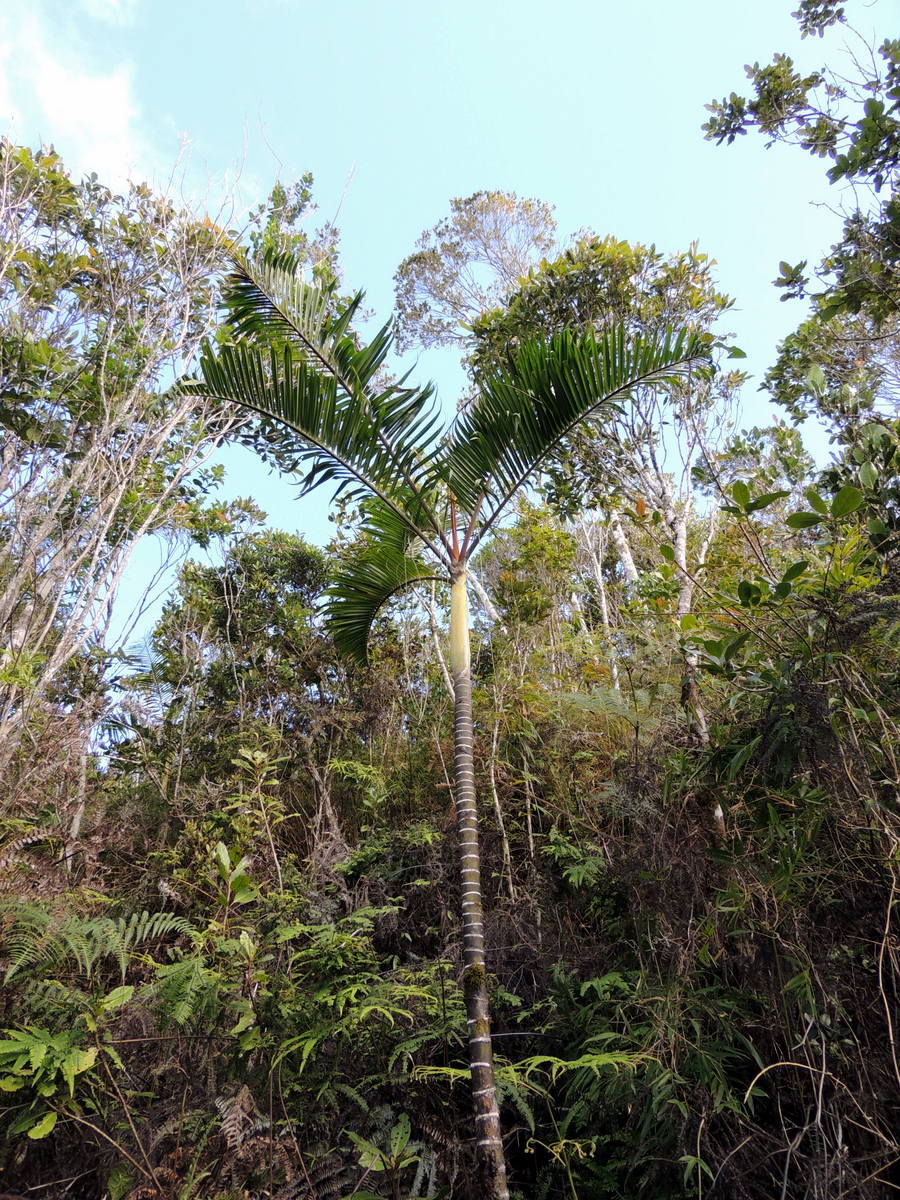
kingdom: Plantae
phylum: Tracheophyta
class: Liliopsida
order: Arecales
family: Arecaceae
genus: Dypsis
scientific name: Dypsis baronii
